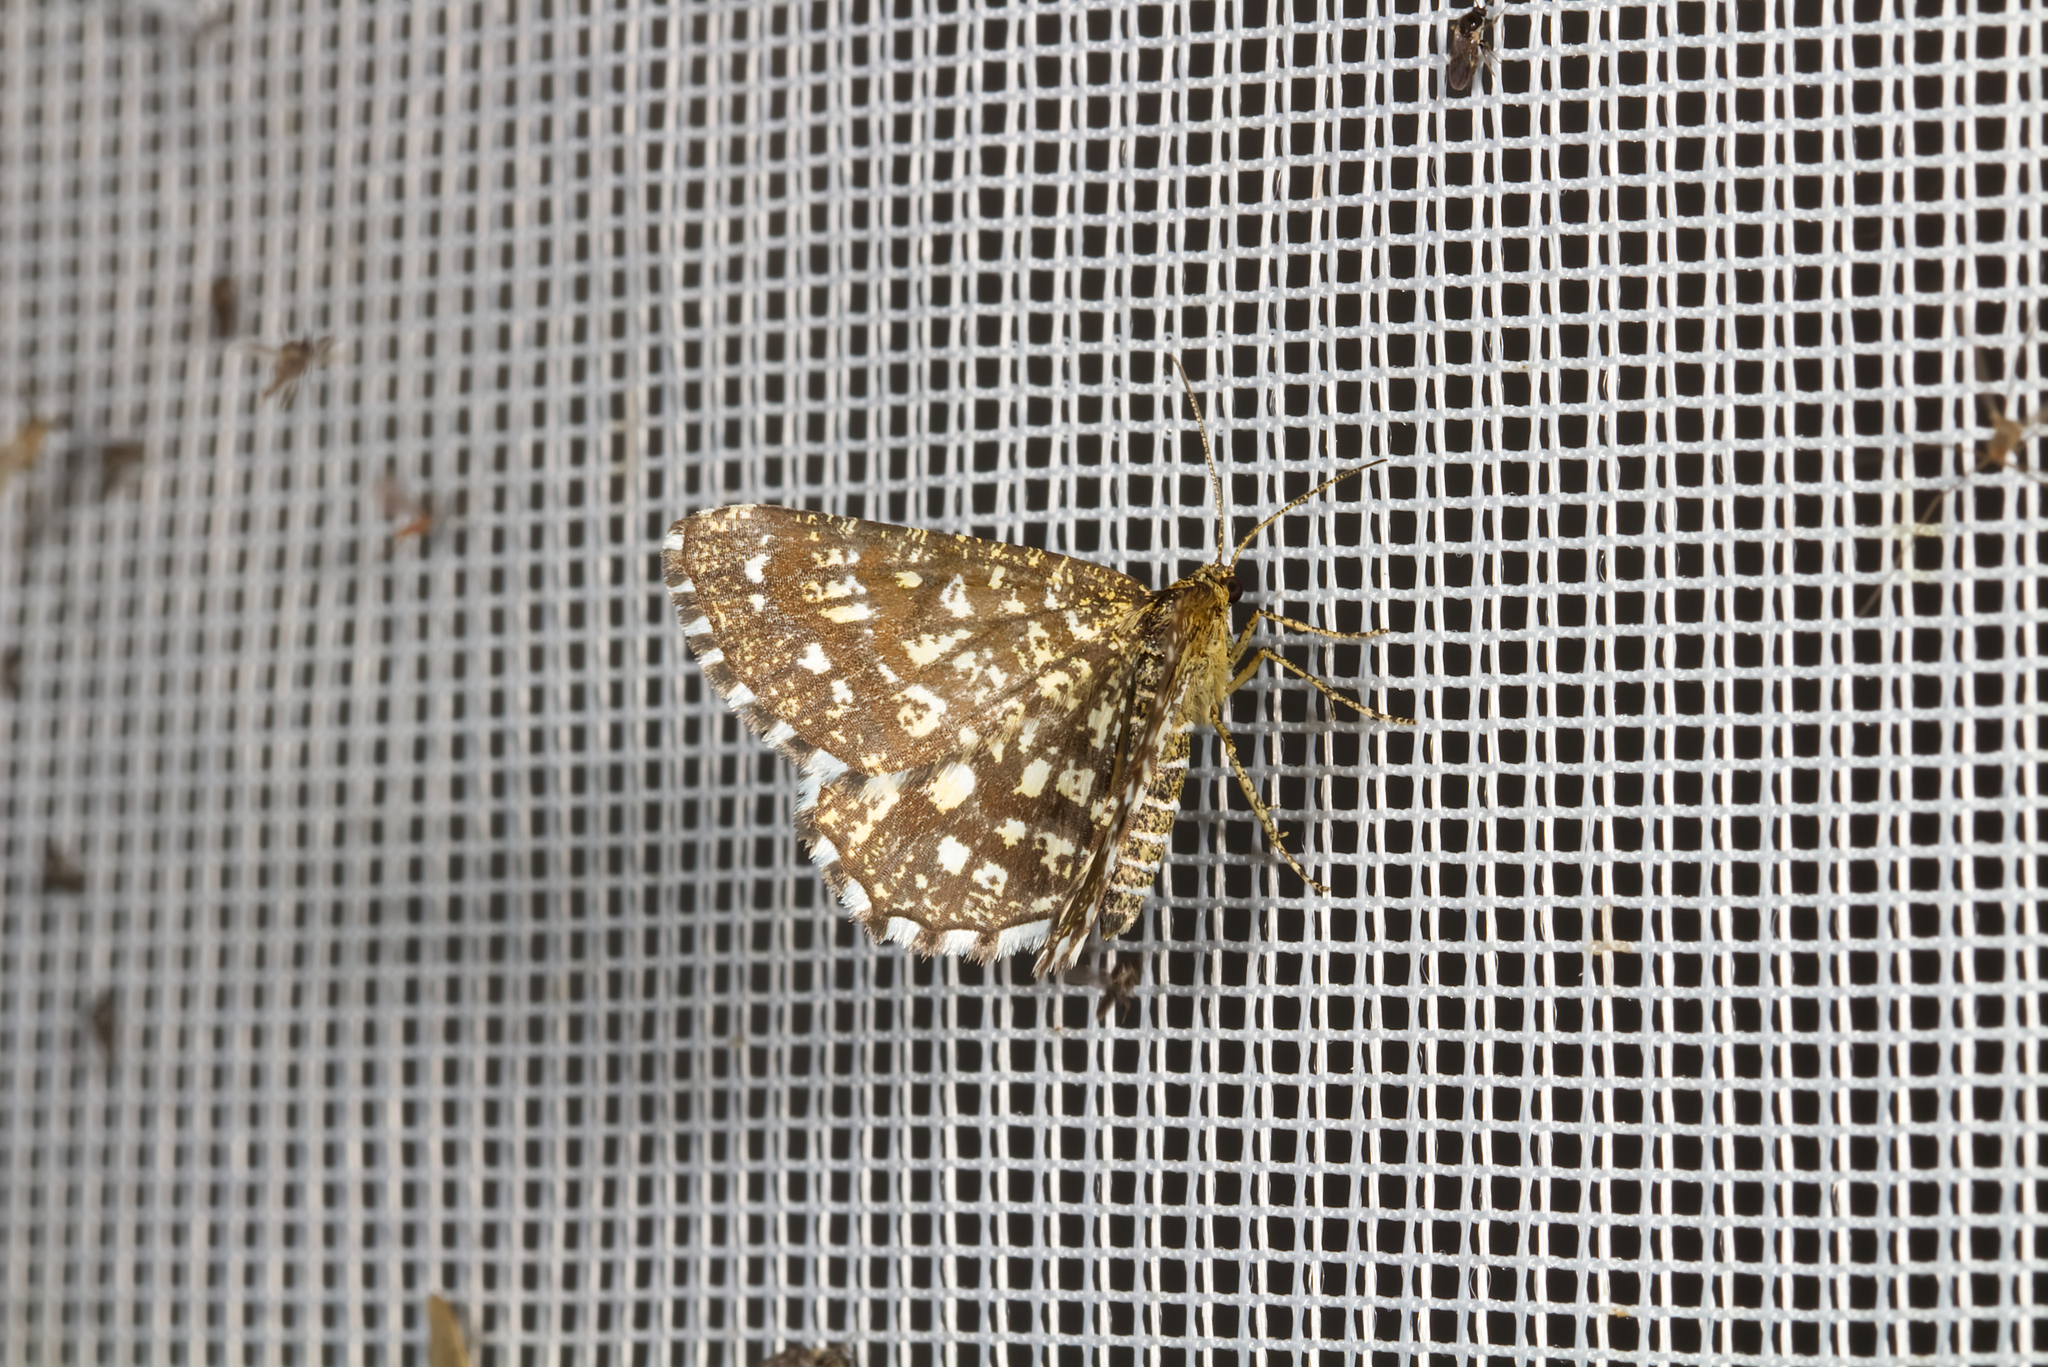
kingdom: Animalia
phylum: Arthropoda
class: Insecta
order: Lepidoptera
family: Geometridae
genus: Chiasmia
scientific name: Chiasmia clathrata
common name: Latticed heath
